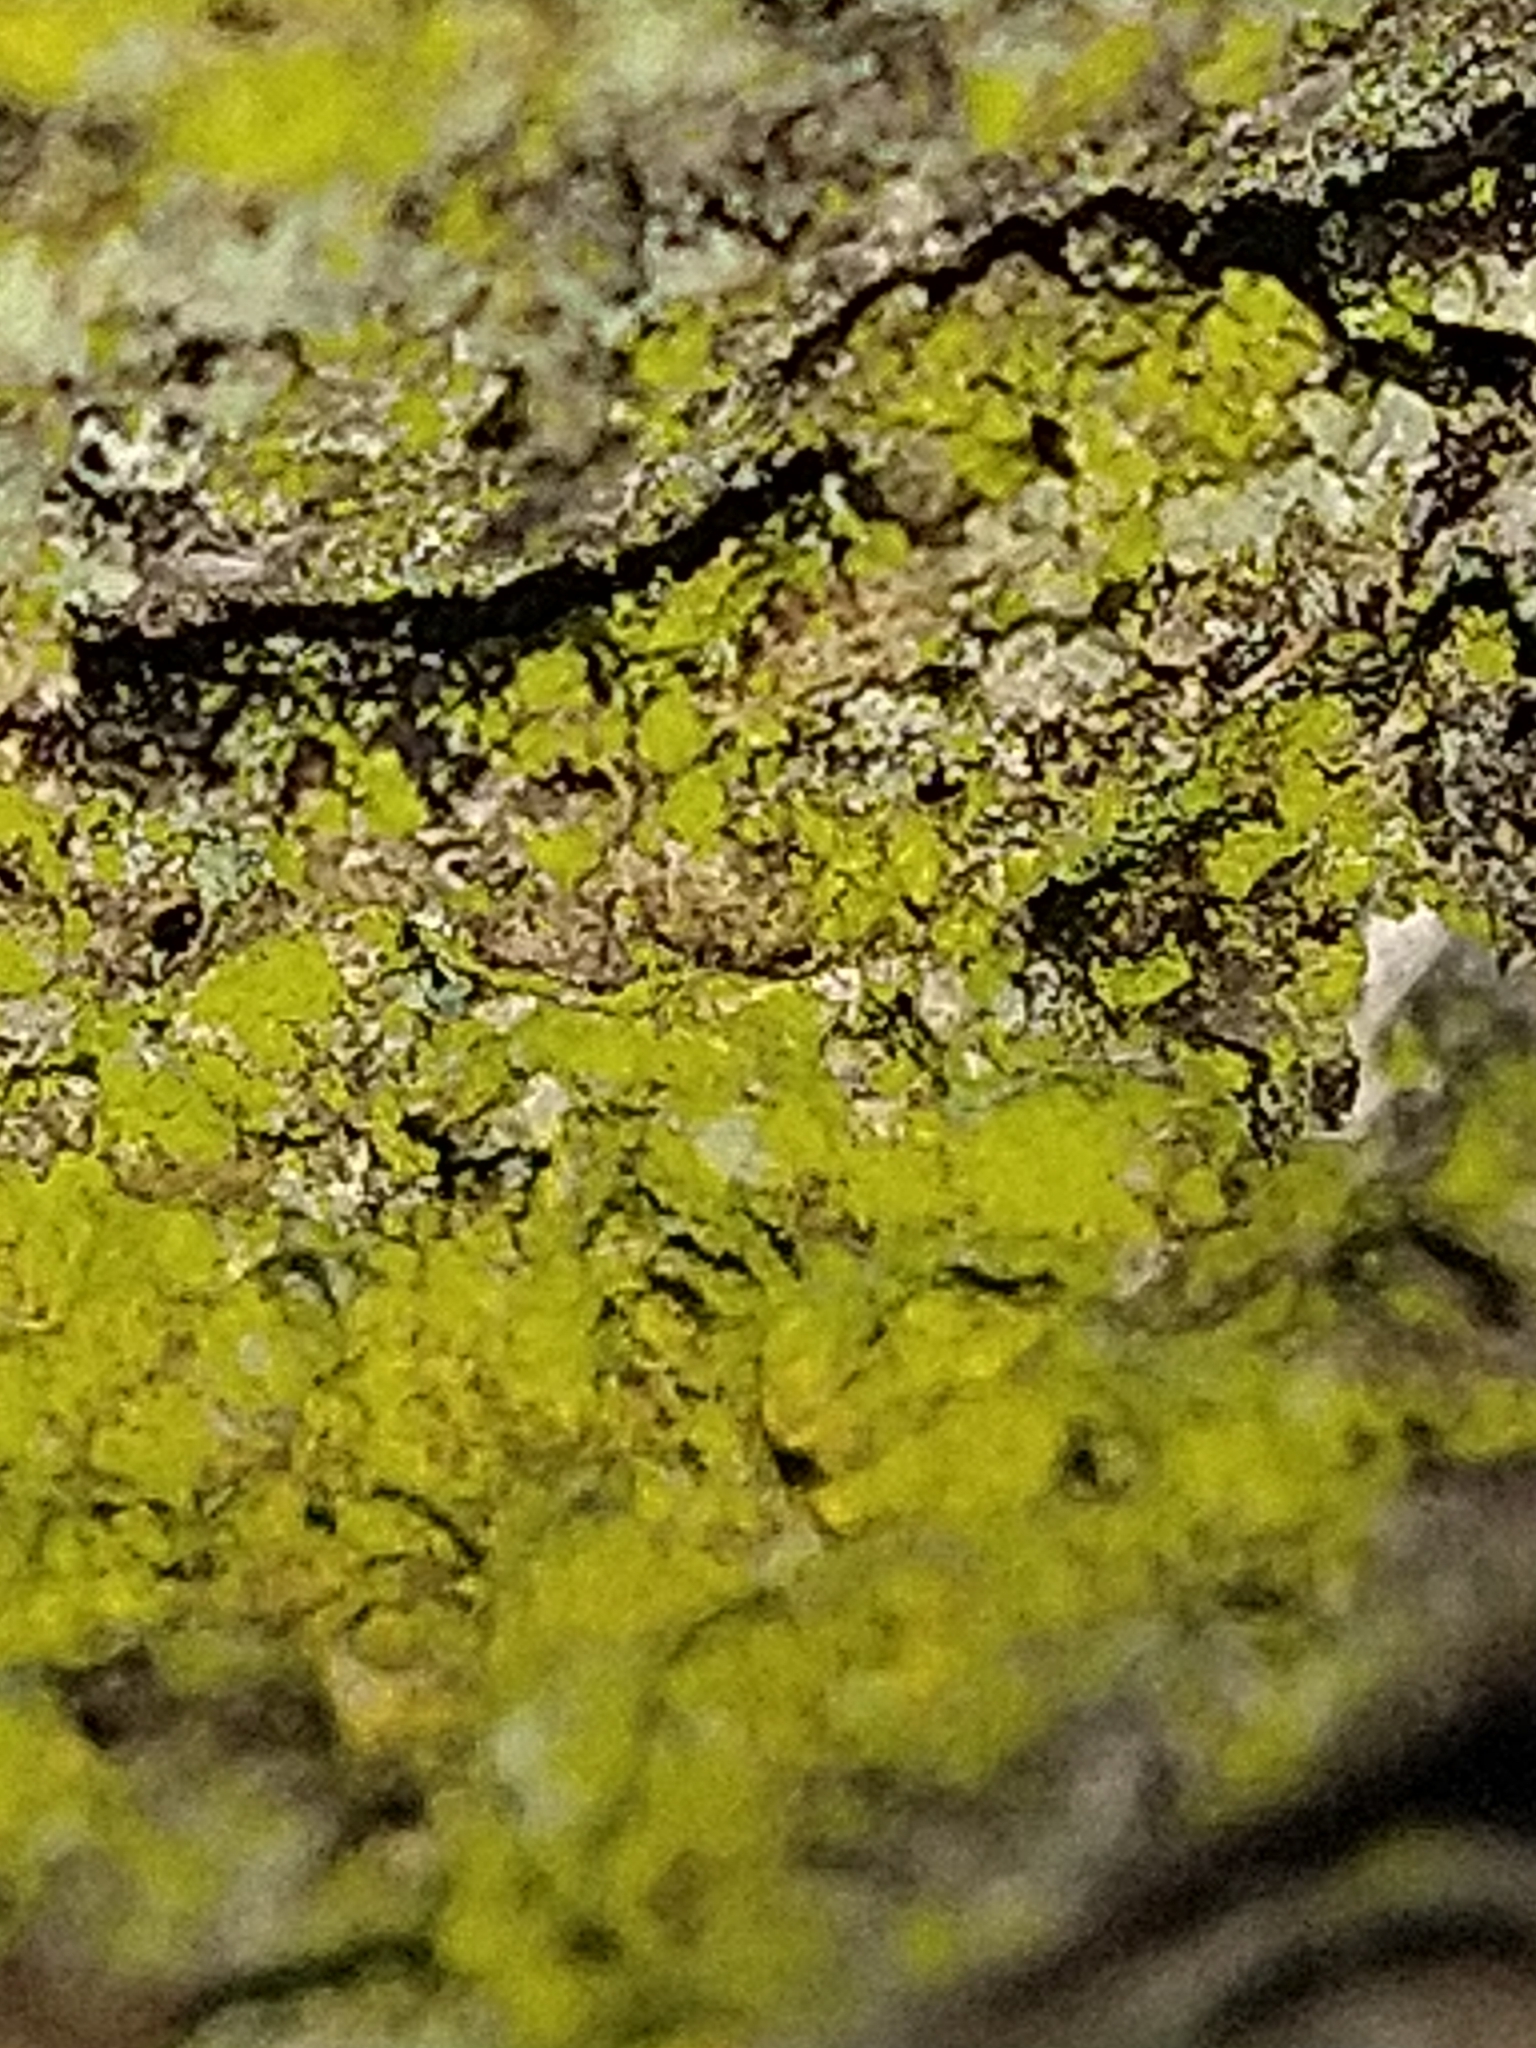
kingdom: Fungi
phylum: Ascomycota
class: Arthoniomycetes
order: Arthoniales
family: Chrysotrichaceae
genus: Chrysothrix
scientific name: Chrysothrix candelaris
